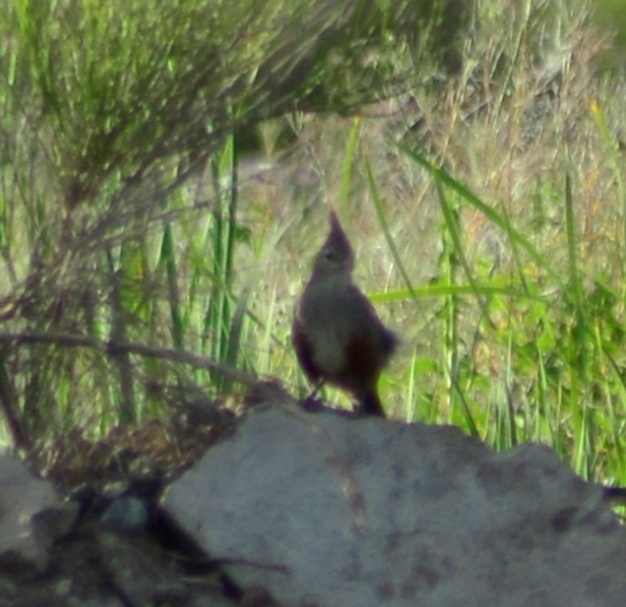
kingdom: Animalia
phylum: Chordata
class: Aves
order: Passeriformes
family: Rhinocryptidae
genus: Rhinocrypta
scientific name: Rhinocrypta lanceolata
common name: Crested gallito
